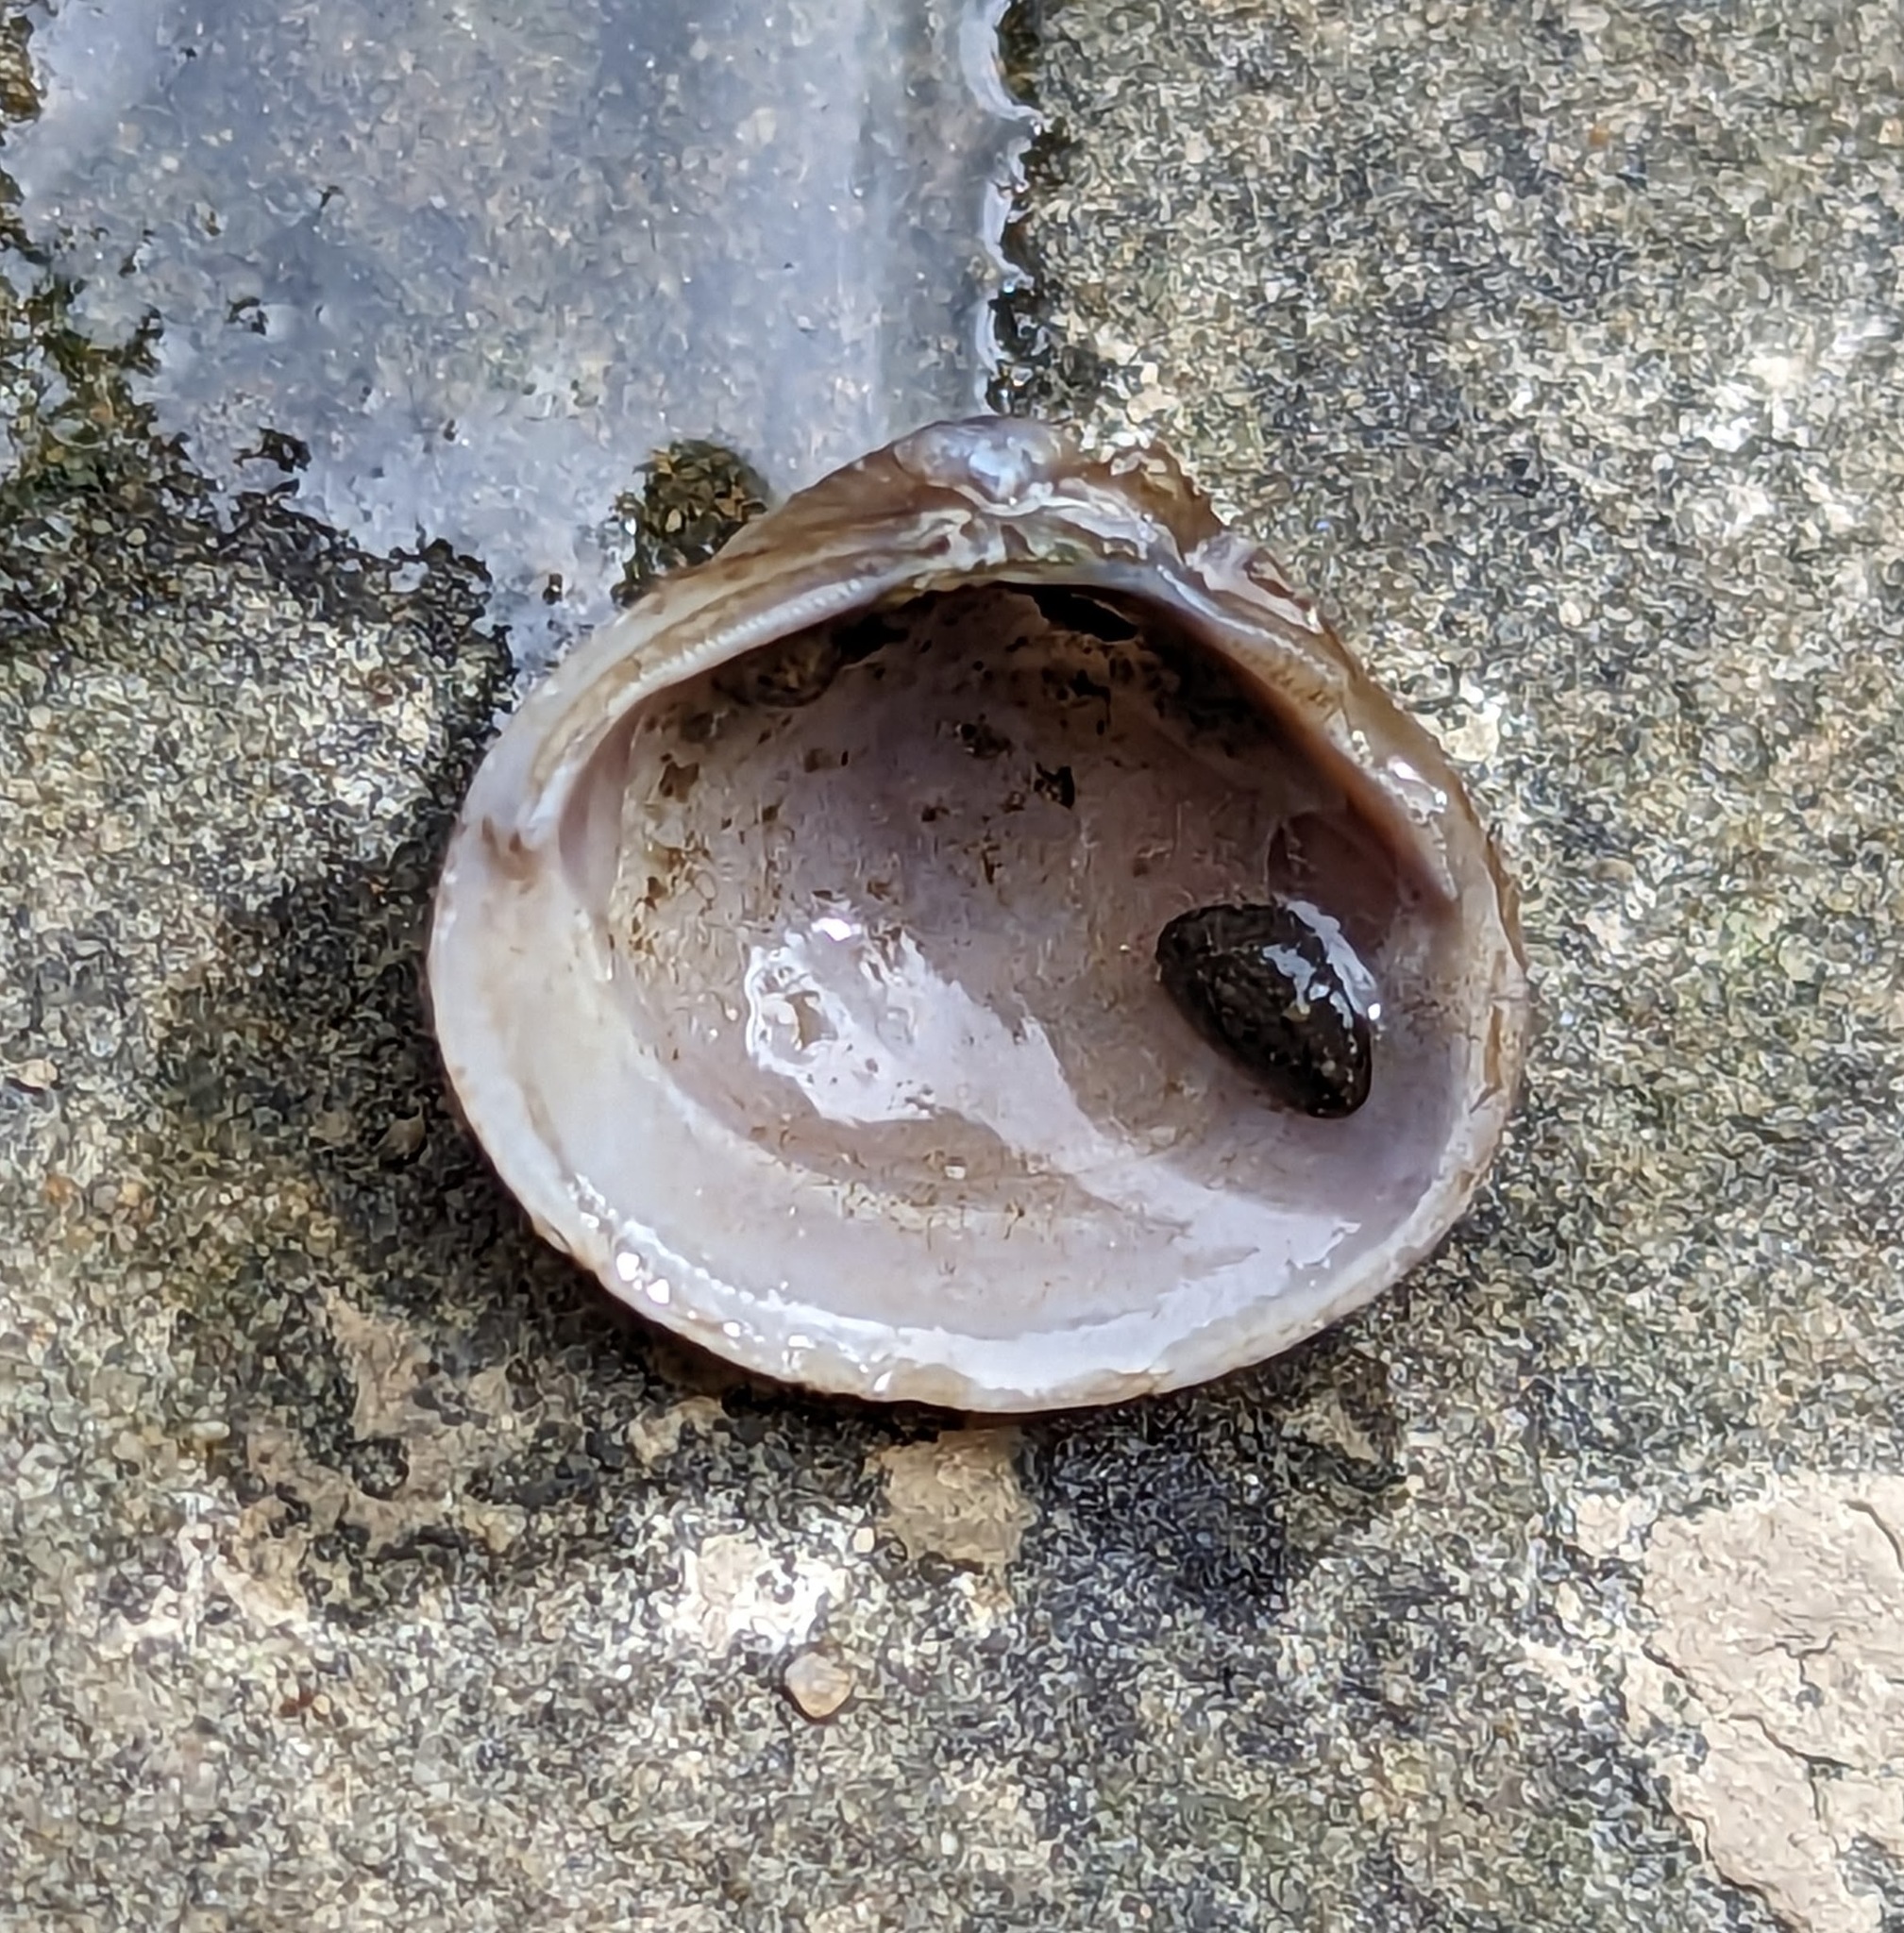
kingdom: Animalia
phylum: Mollusca
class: Bivalvia
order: Venerida
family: Cyrenidae
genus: Corbicula
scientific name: Corbicula fluminea
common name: Asian clam
